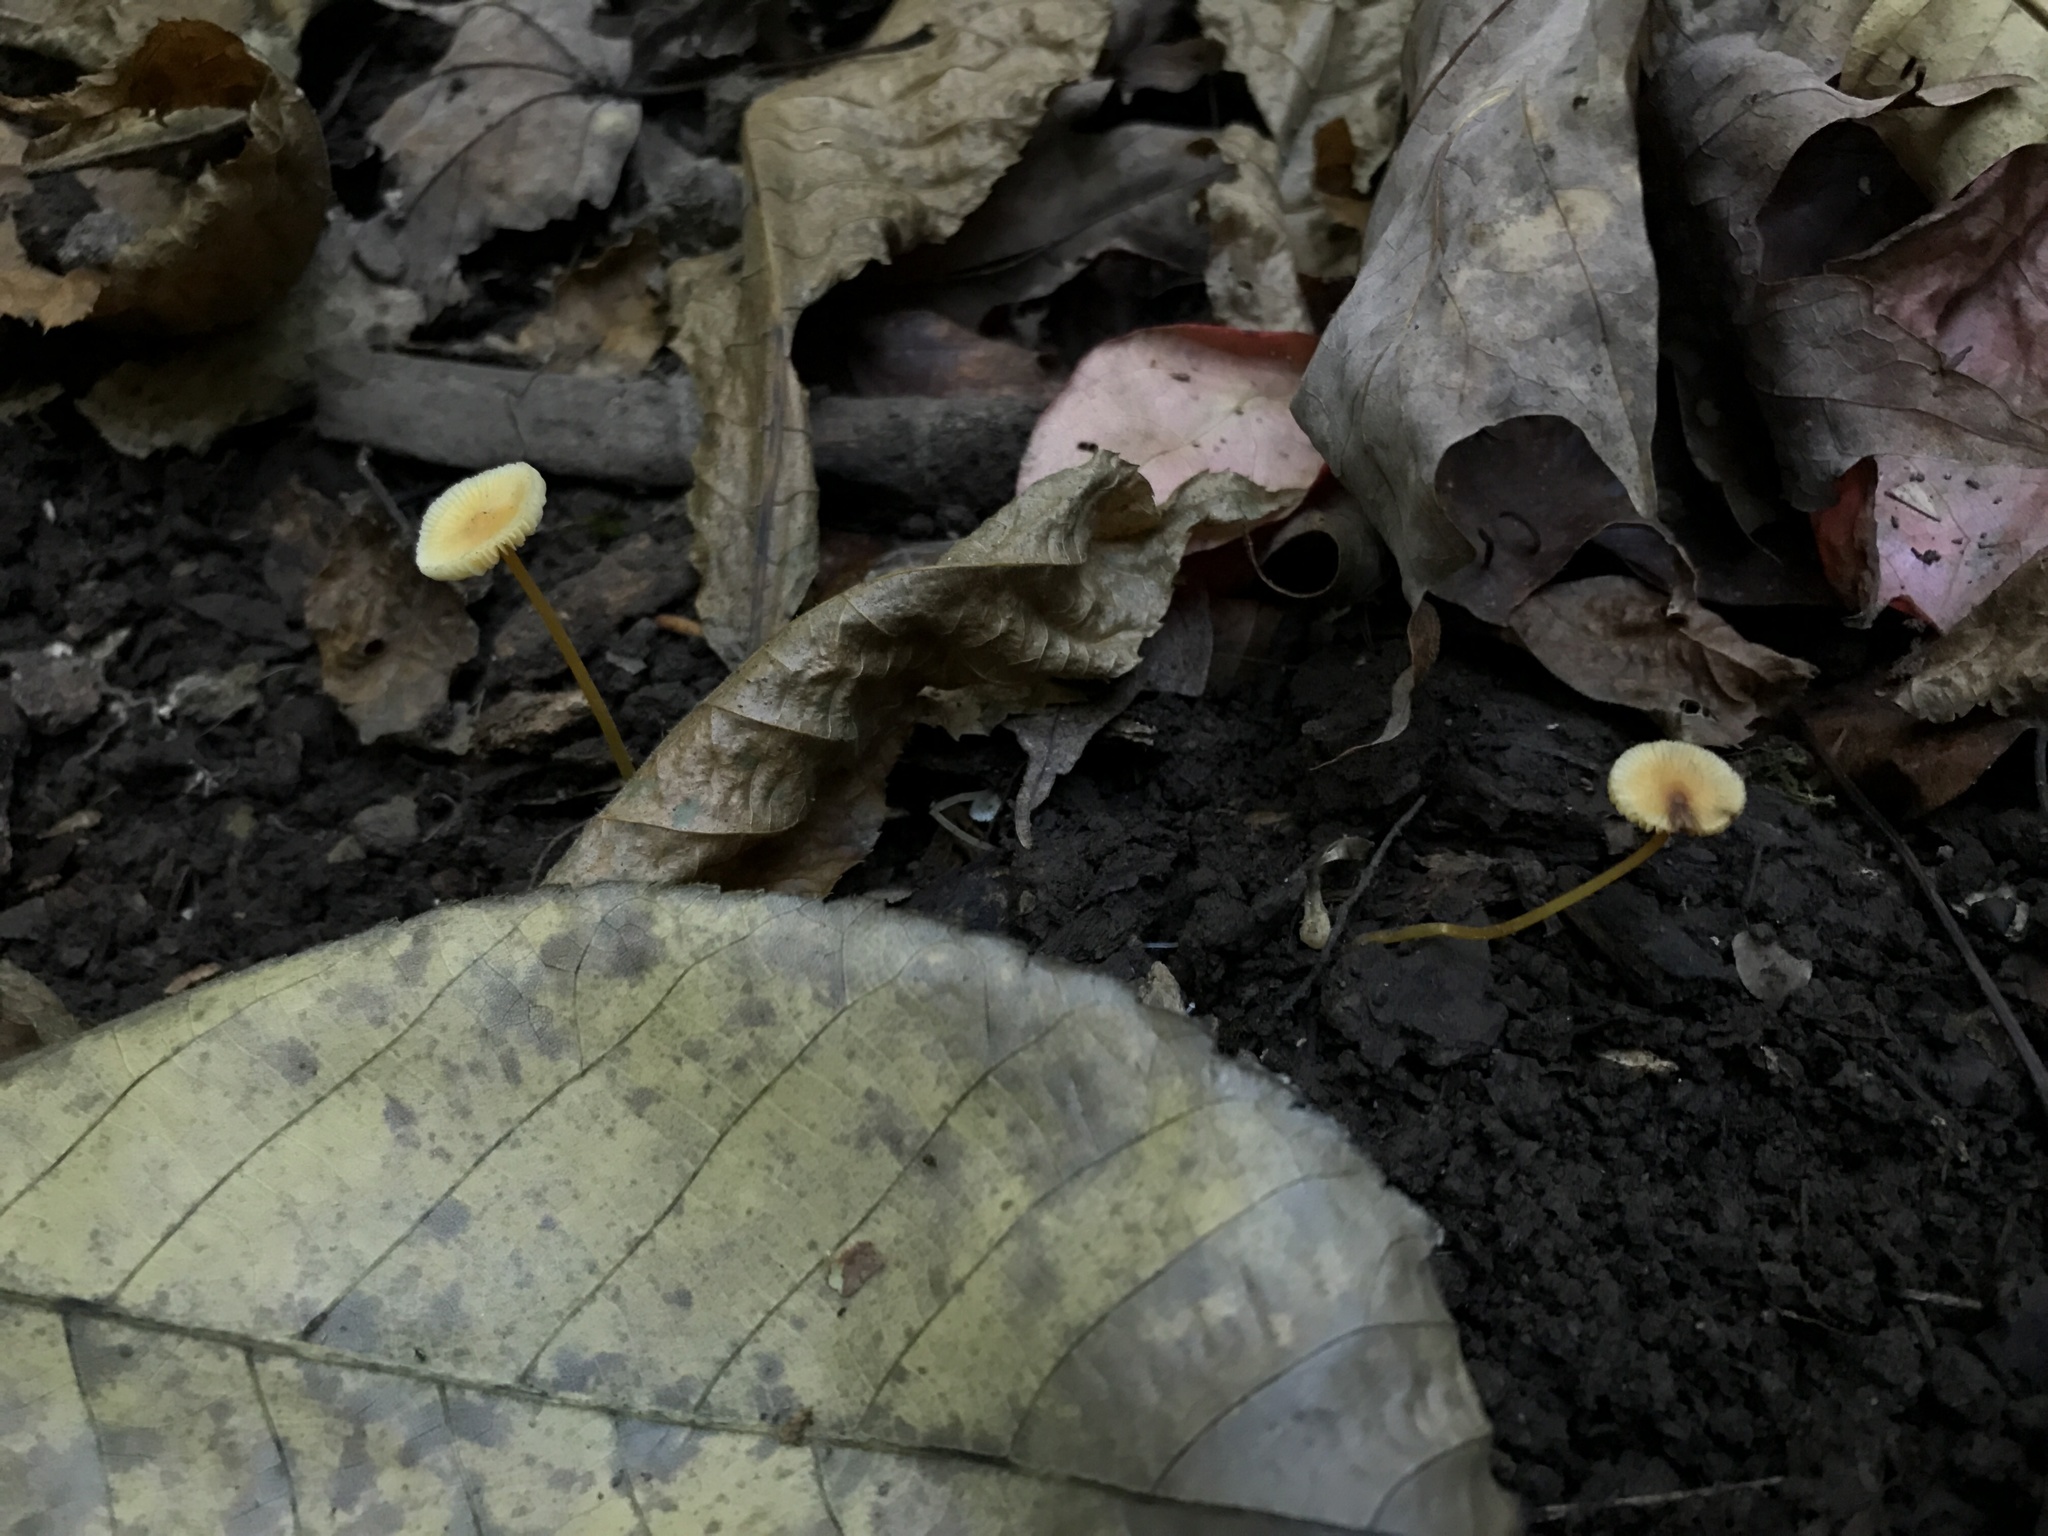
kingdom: Fungi
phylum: Basidiomycota
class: Agaricomycetes
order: Agaricales
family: Mycenaceae
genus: Mycena
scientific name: Mycena crocea
